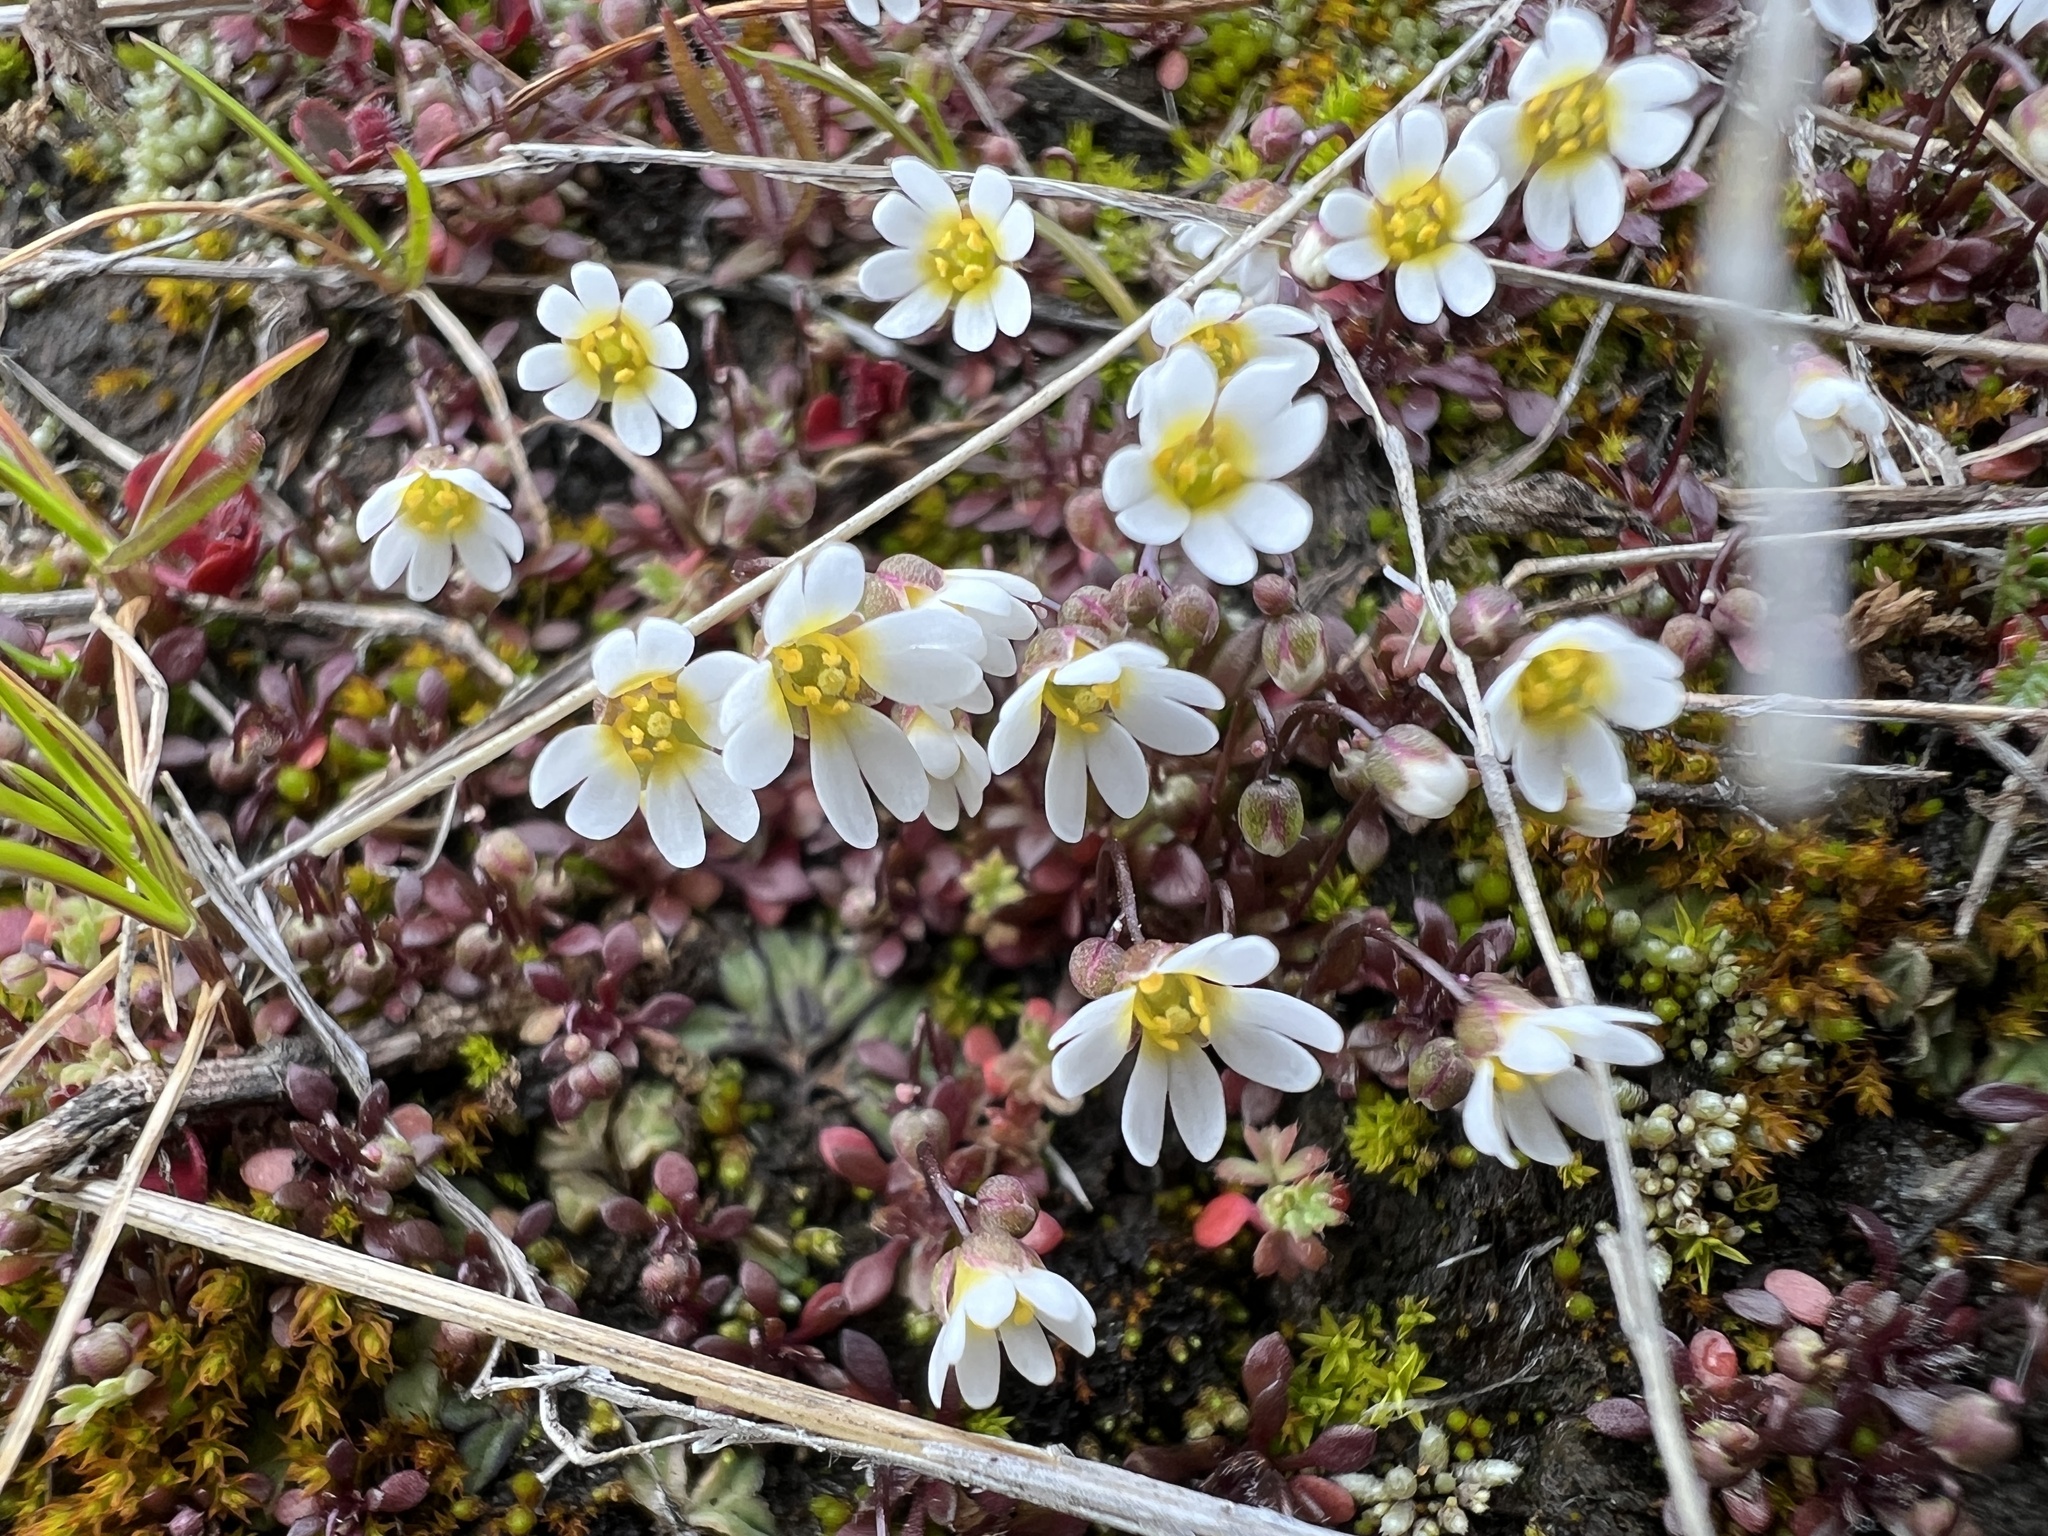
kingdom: Plantae
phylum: Tracheophyta
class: Magnoliopsida
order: Brassicales
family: Brassicaceae
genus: Draba
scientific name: Draba verna
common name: Spring draba
